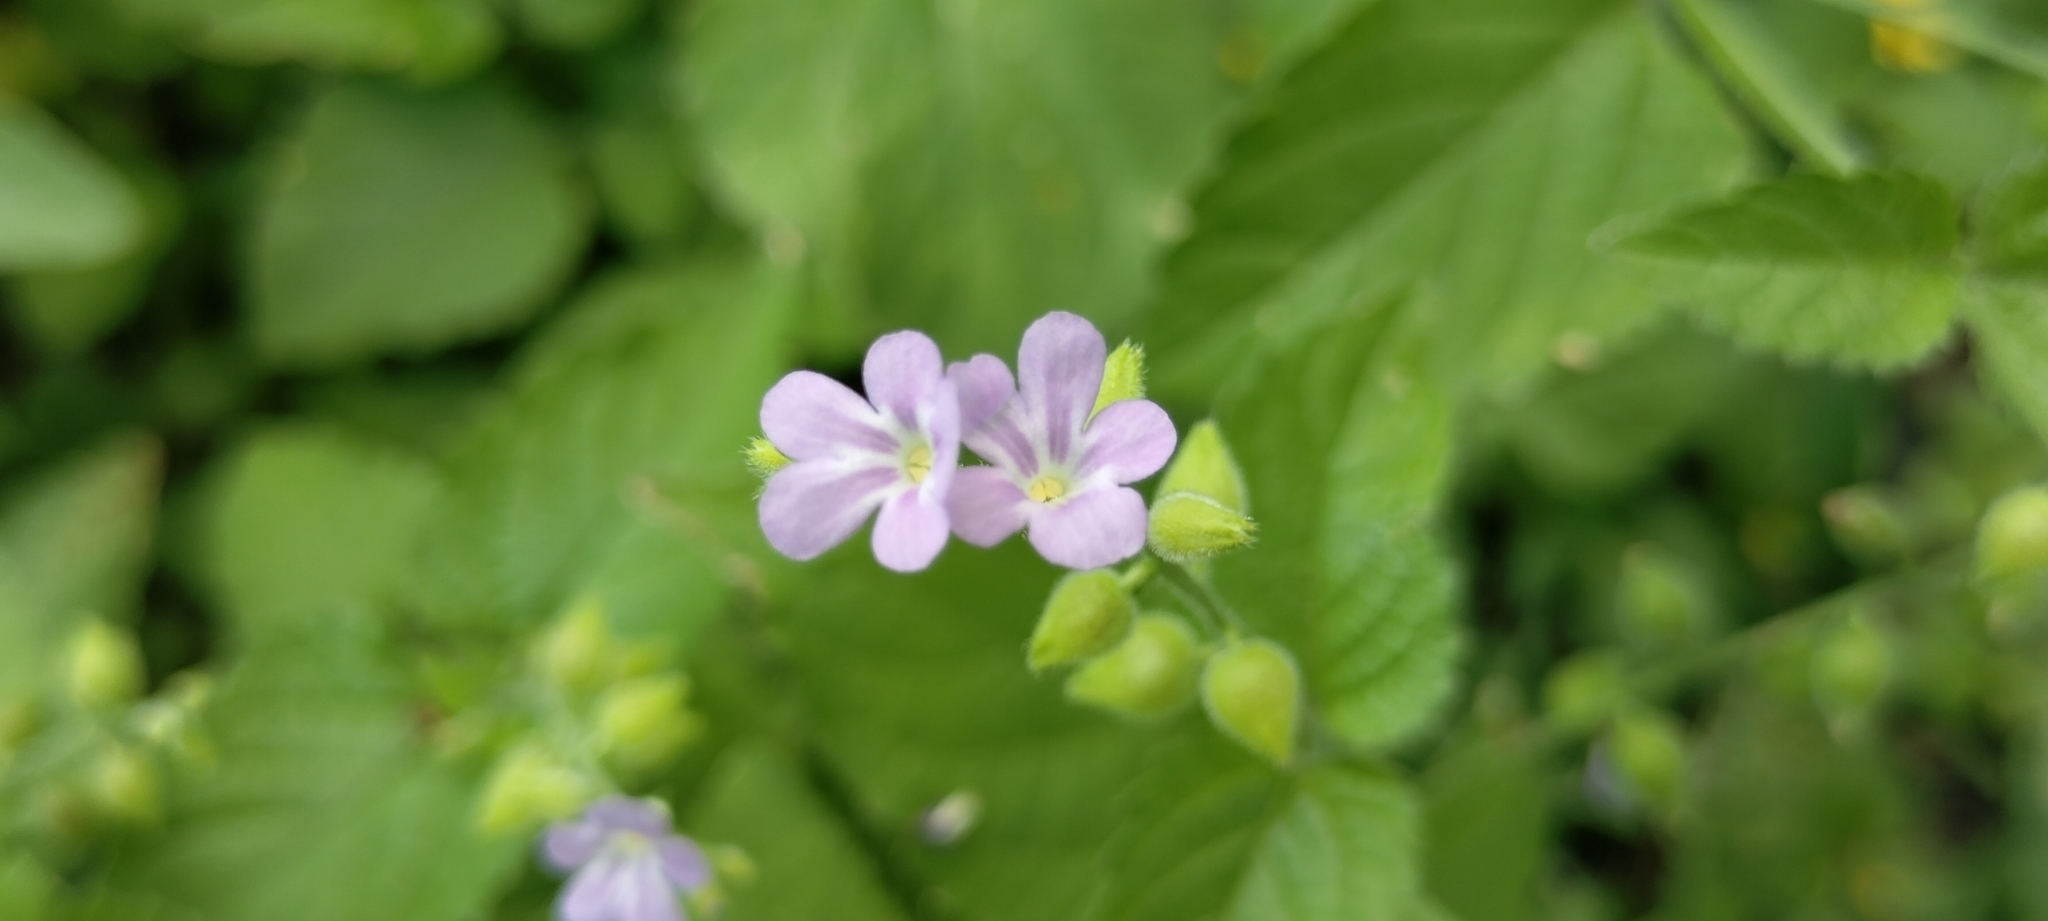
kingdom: Plantae
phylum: Tracheophyta
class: Magnoliopsida
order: Lamiales
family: Verbenaceae
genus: Priva
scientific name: Priva lappulacea
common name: Fasten-'pon-coat
